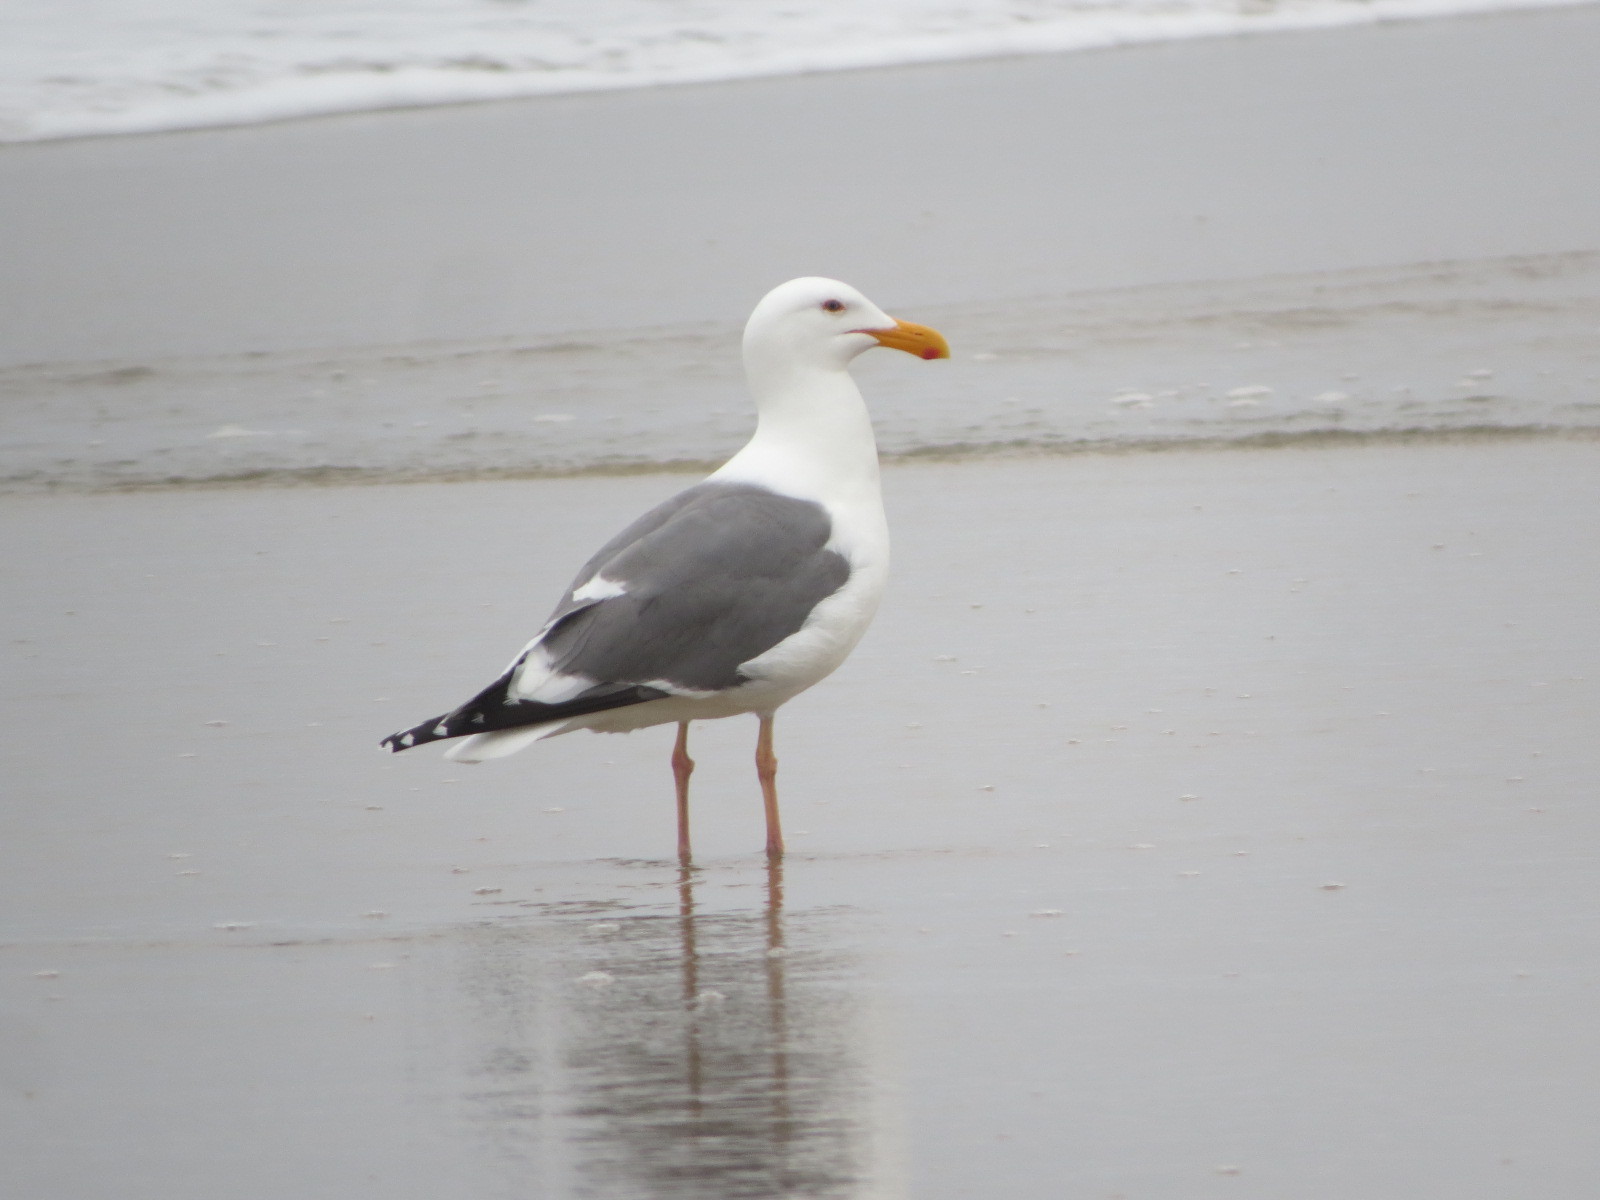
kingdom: Animalia
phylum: Chordata
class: Aves
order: Charadriiformes
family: Laridae
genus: Larus
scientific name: Larus occidentalis
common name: Western gull
